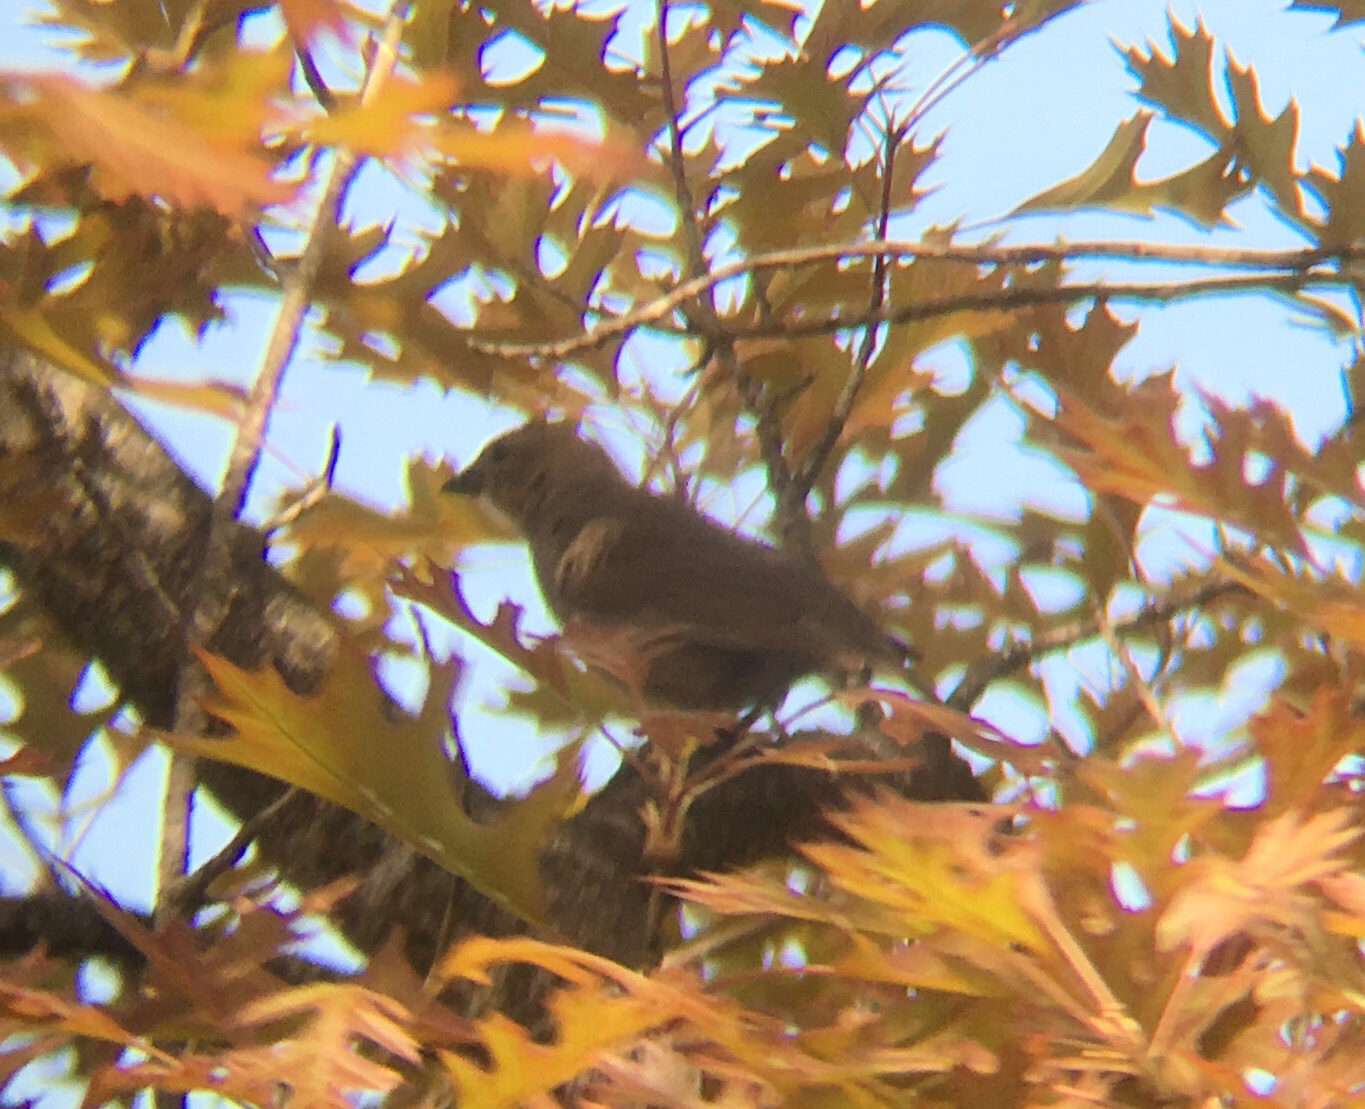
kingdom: Animalia
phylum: Chordata
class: Aves
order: Passeriformes
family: Icteridae
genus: Molothrus
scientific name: Molothrus ater
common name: Brown-headed cowbird
